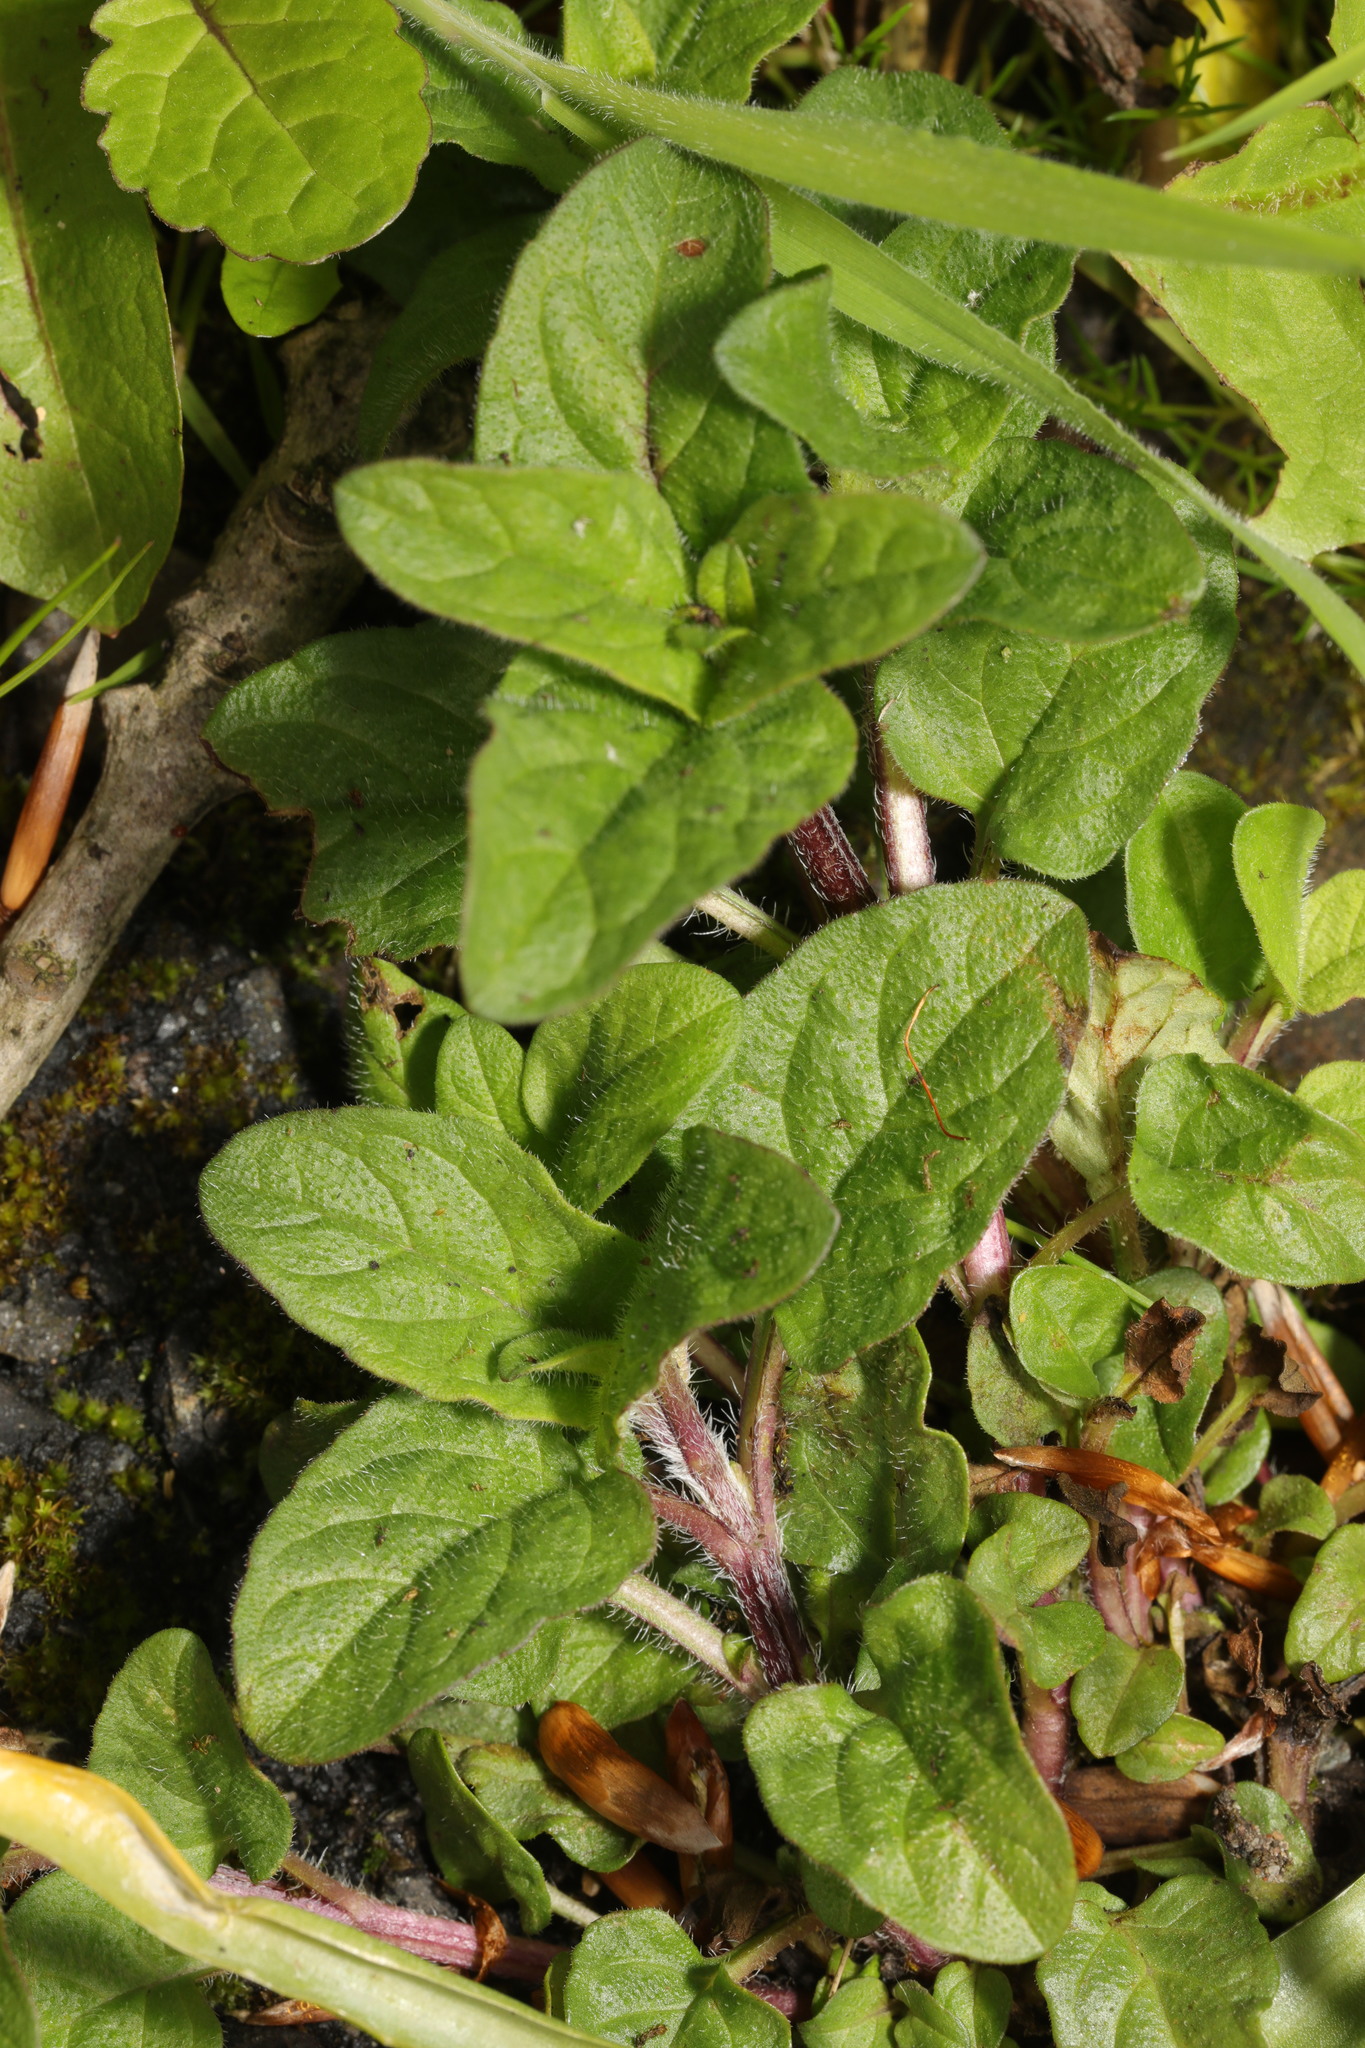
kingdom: Plantae
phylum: Tracheophyta
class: Magnoliopsida
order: Lamiales
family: Lamiaceae
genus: Prunella
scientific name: Prunella vulgaris
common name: Heal-all
